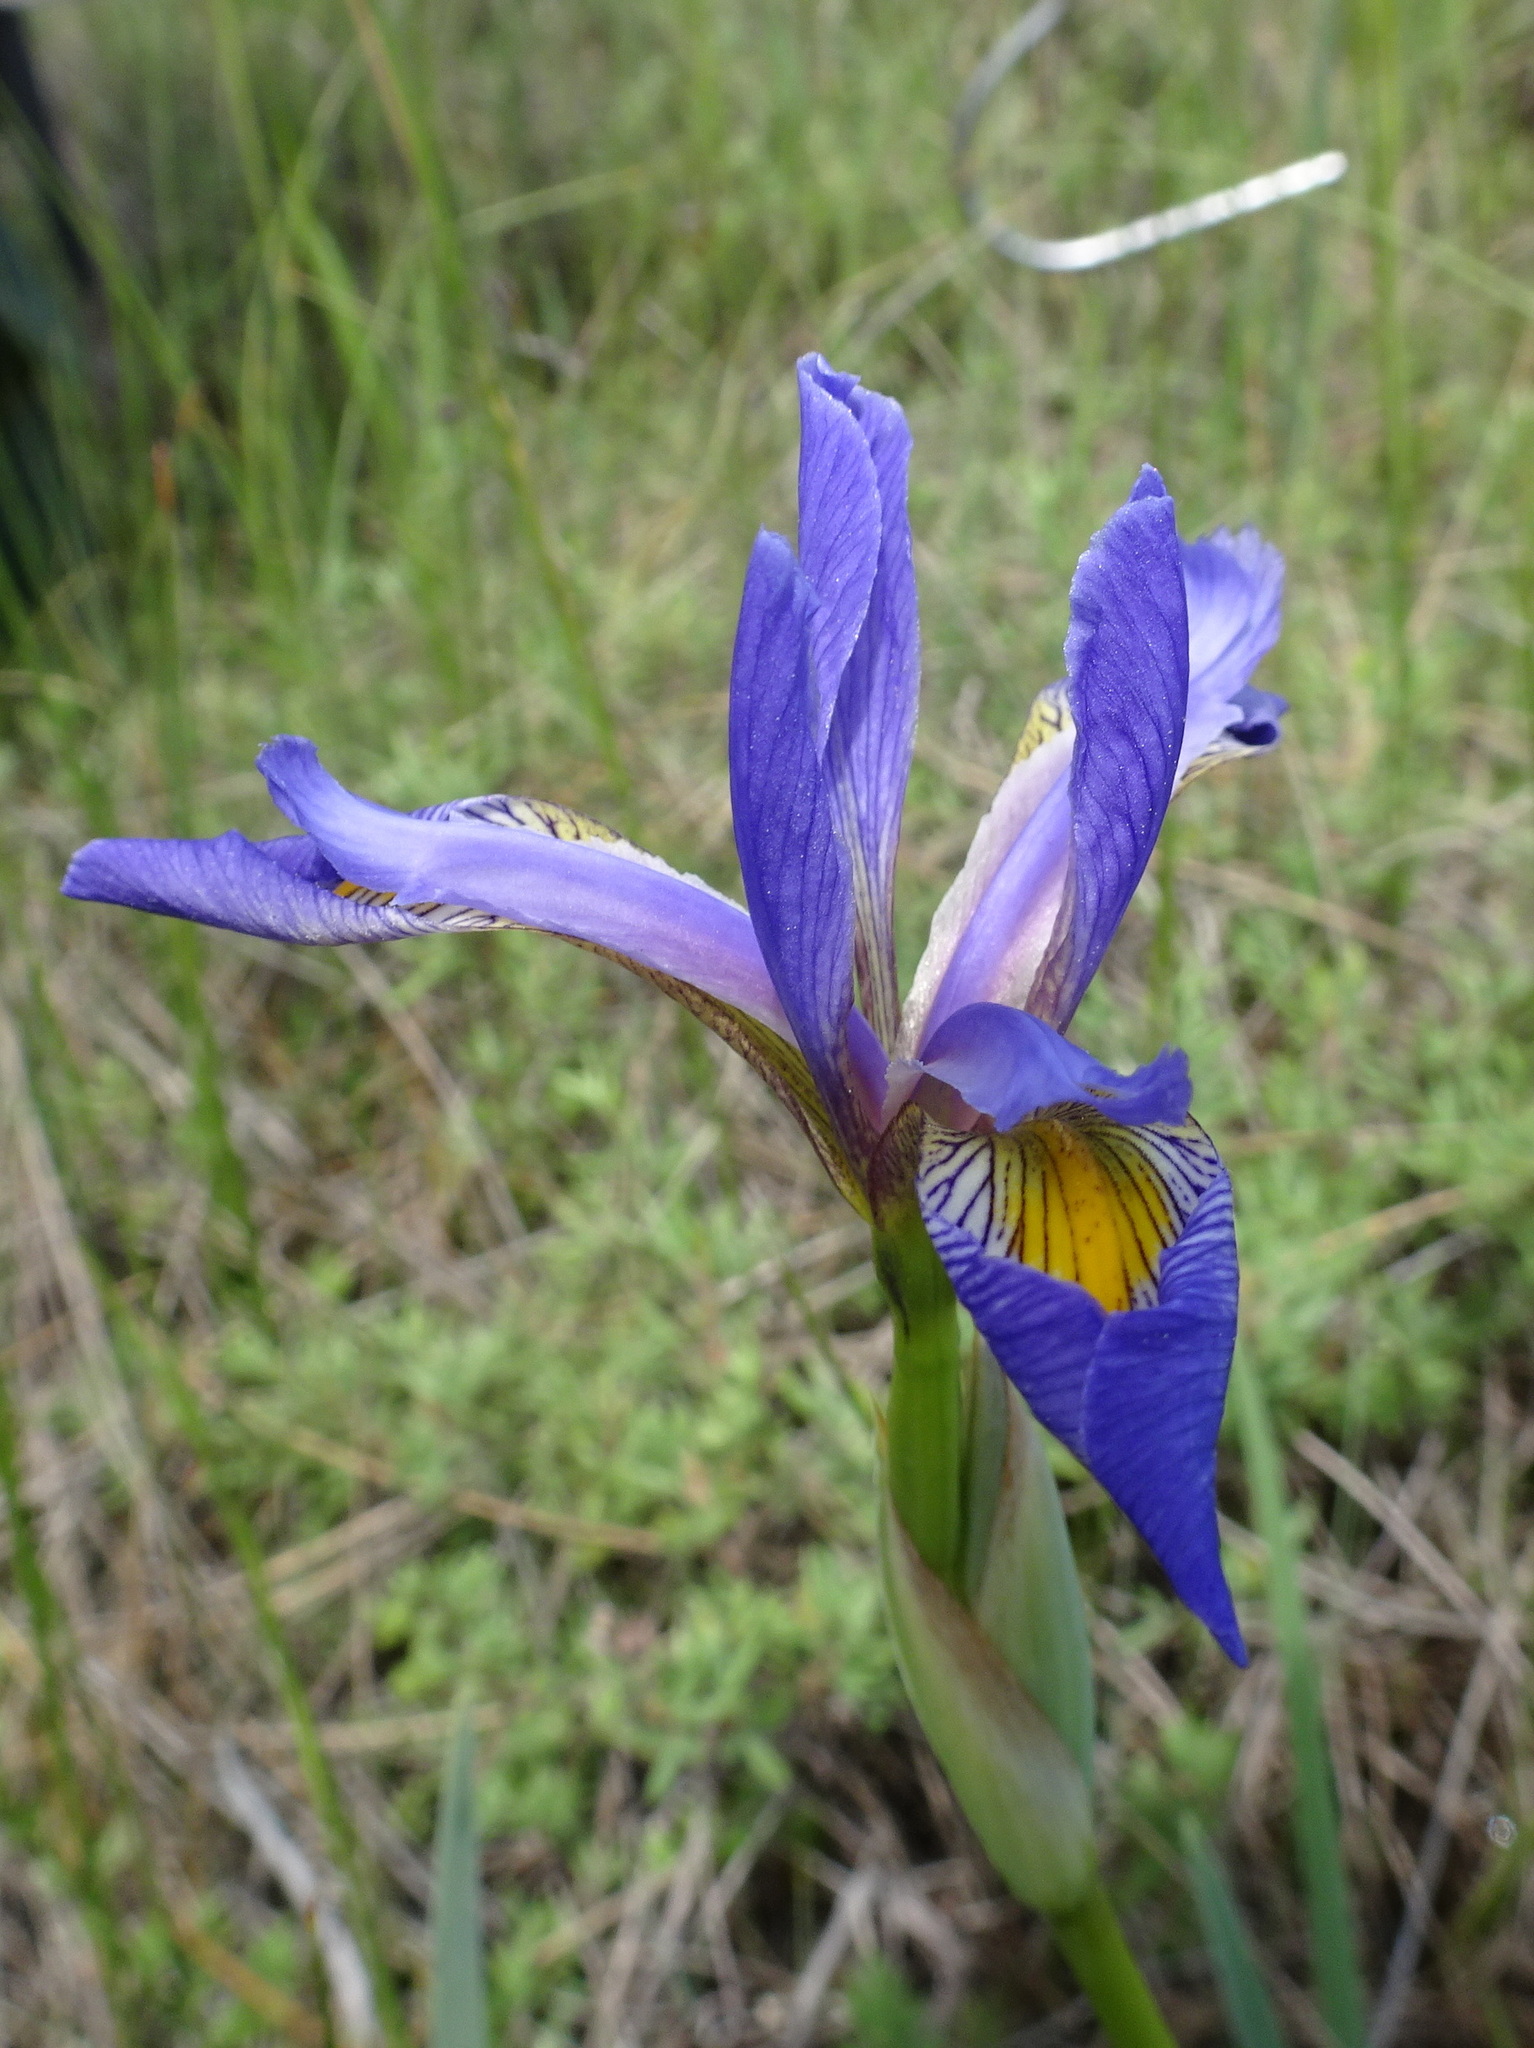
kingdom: Plantae
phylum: Tracheophyta
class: Liliopsida
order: Asparagales
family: Iridaceae
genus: Iris
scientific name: Iris virginica
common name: Southern blue flag
